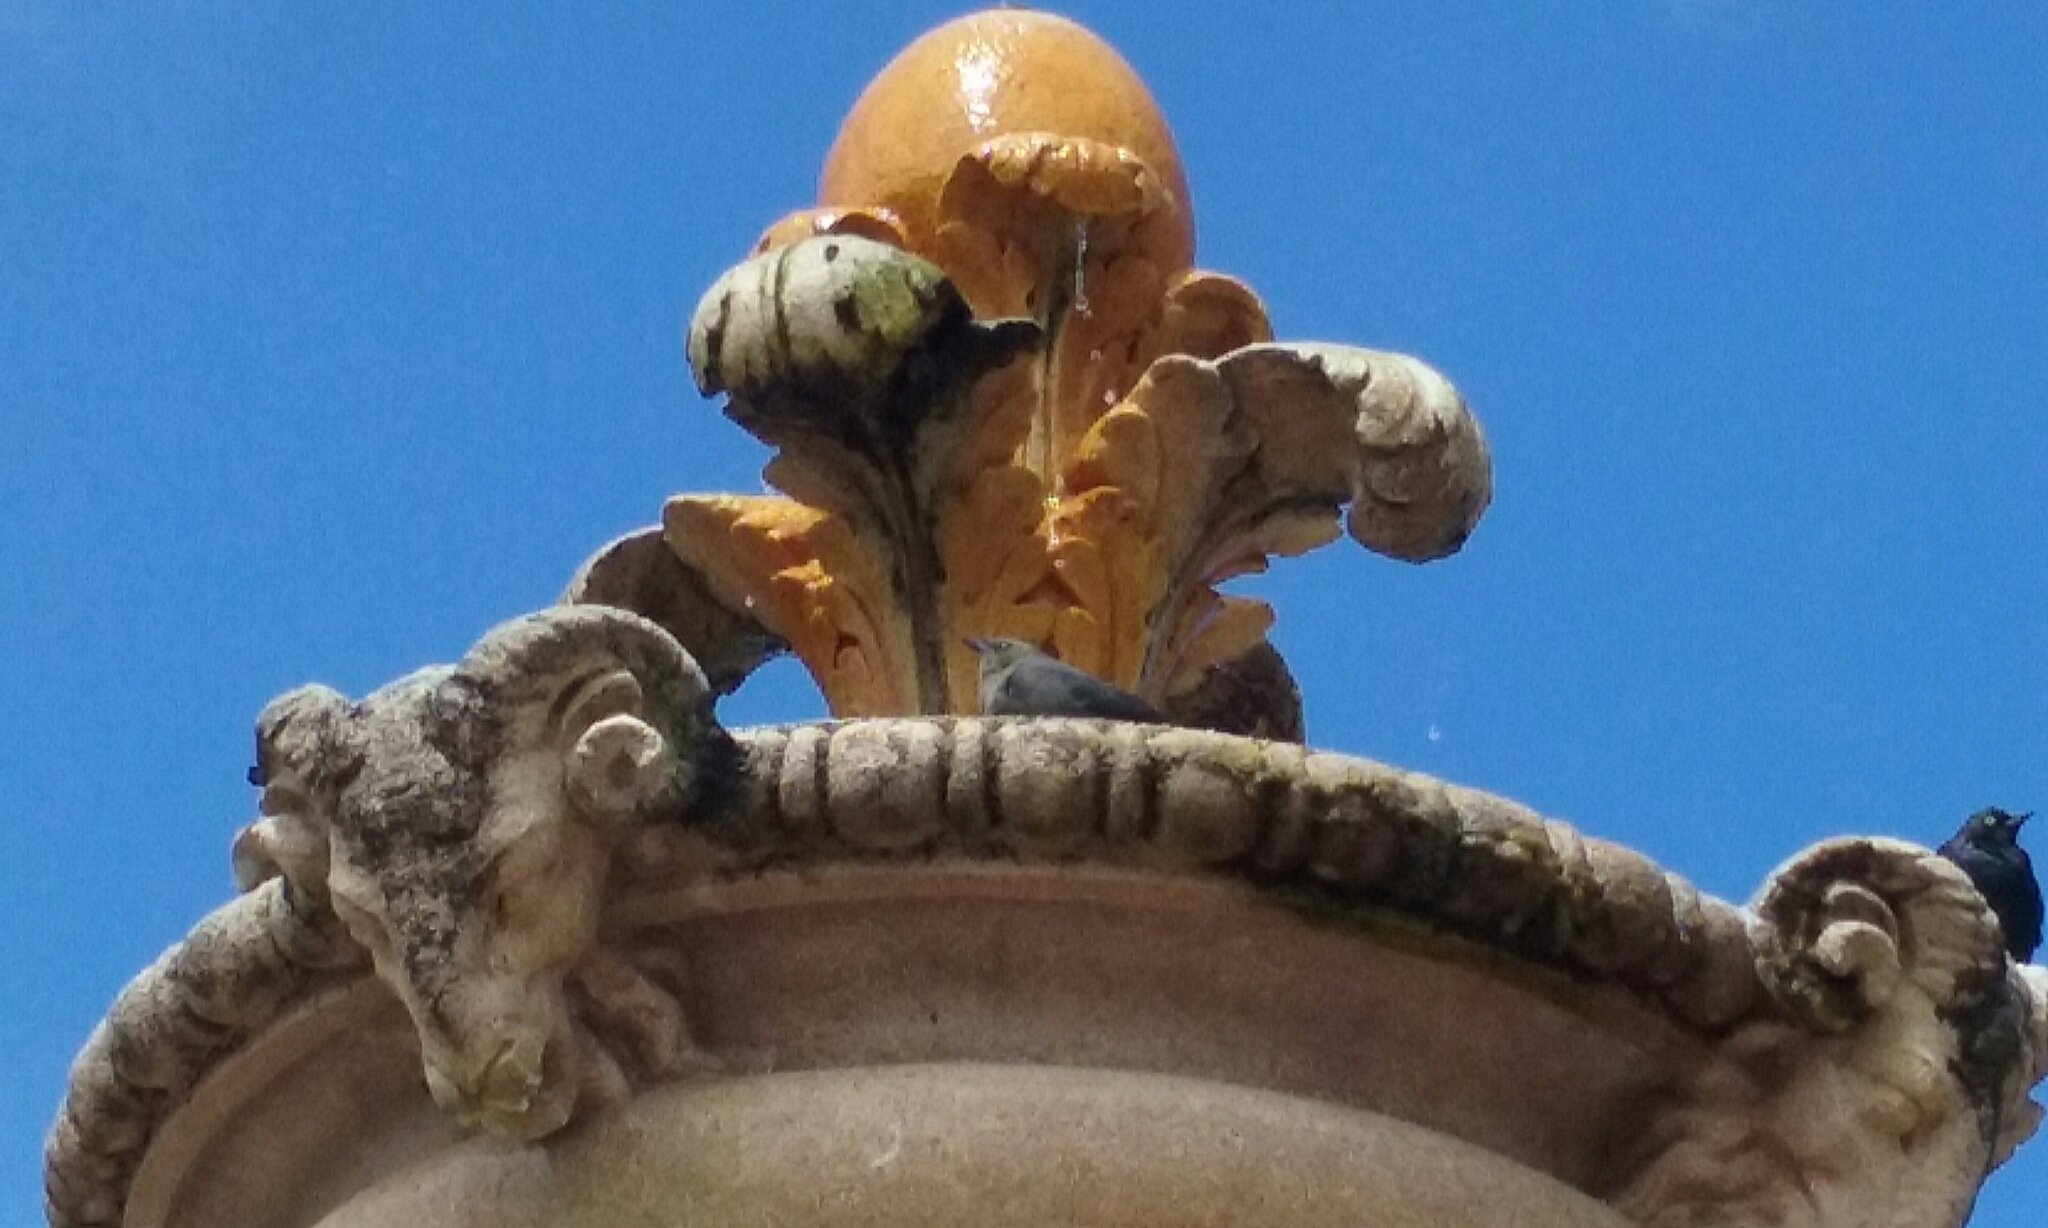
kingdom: Animalia
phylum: Chordata
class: Aves
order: Passeriformes
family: Icteridae
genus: Euphagus
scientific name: Euphagus cyanocephalus
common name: Brewer's blackbird
